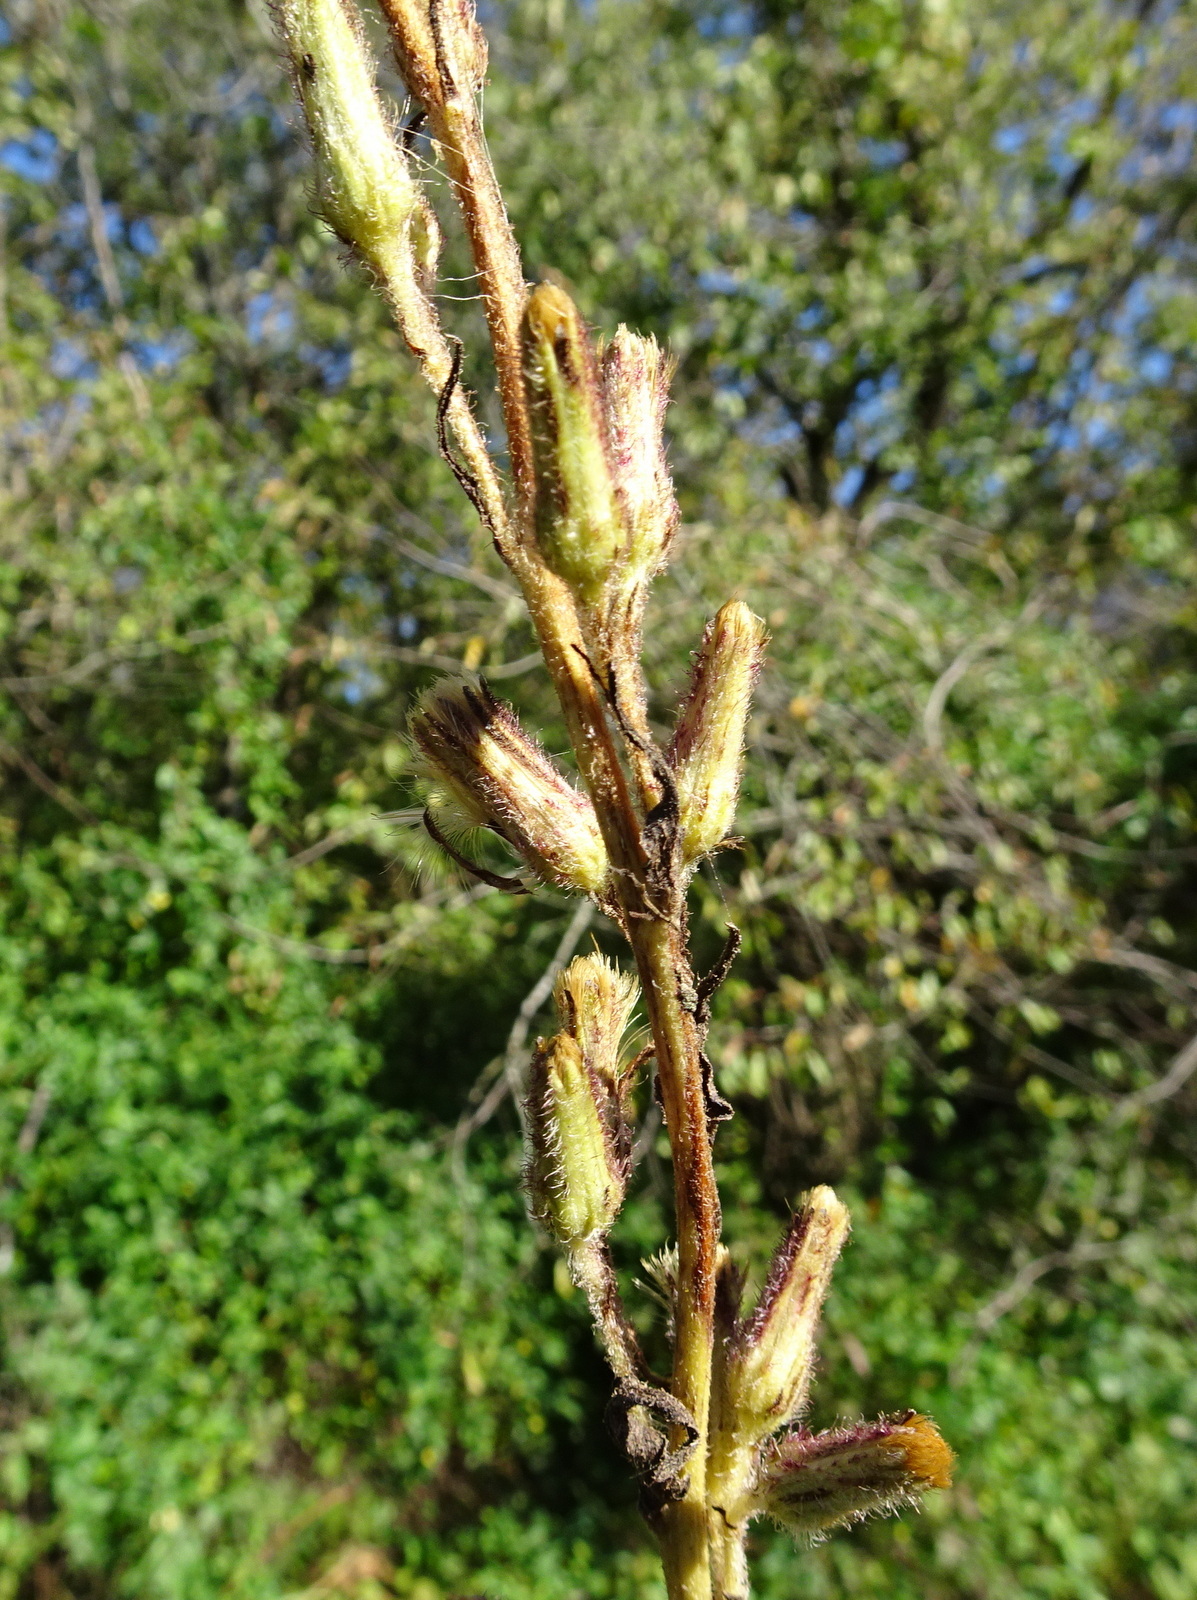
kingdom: Plantae
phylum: Tracheophyta
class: Magnoliopsida
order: Asterales
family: Asteraceae
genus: Nabalus
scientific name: Nabalus asper
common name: Rough rattlesnakeroot
